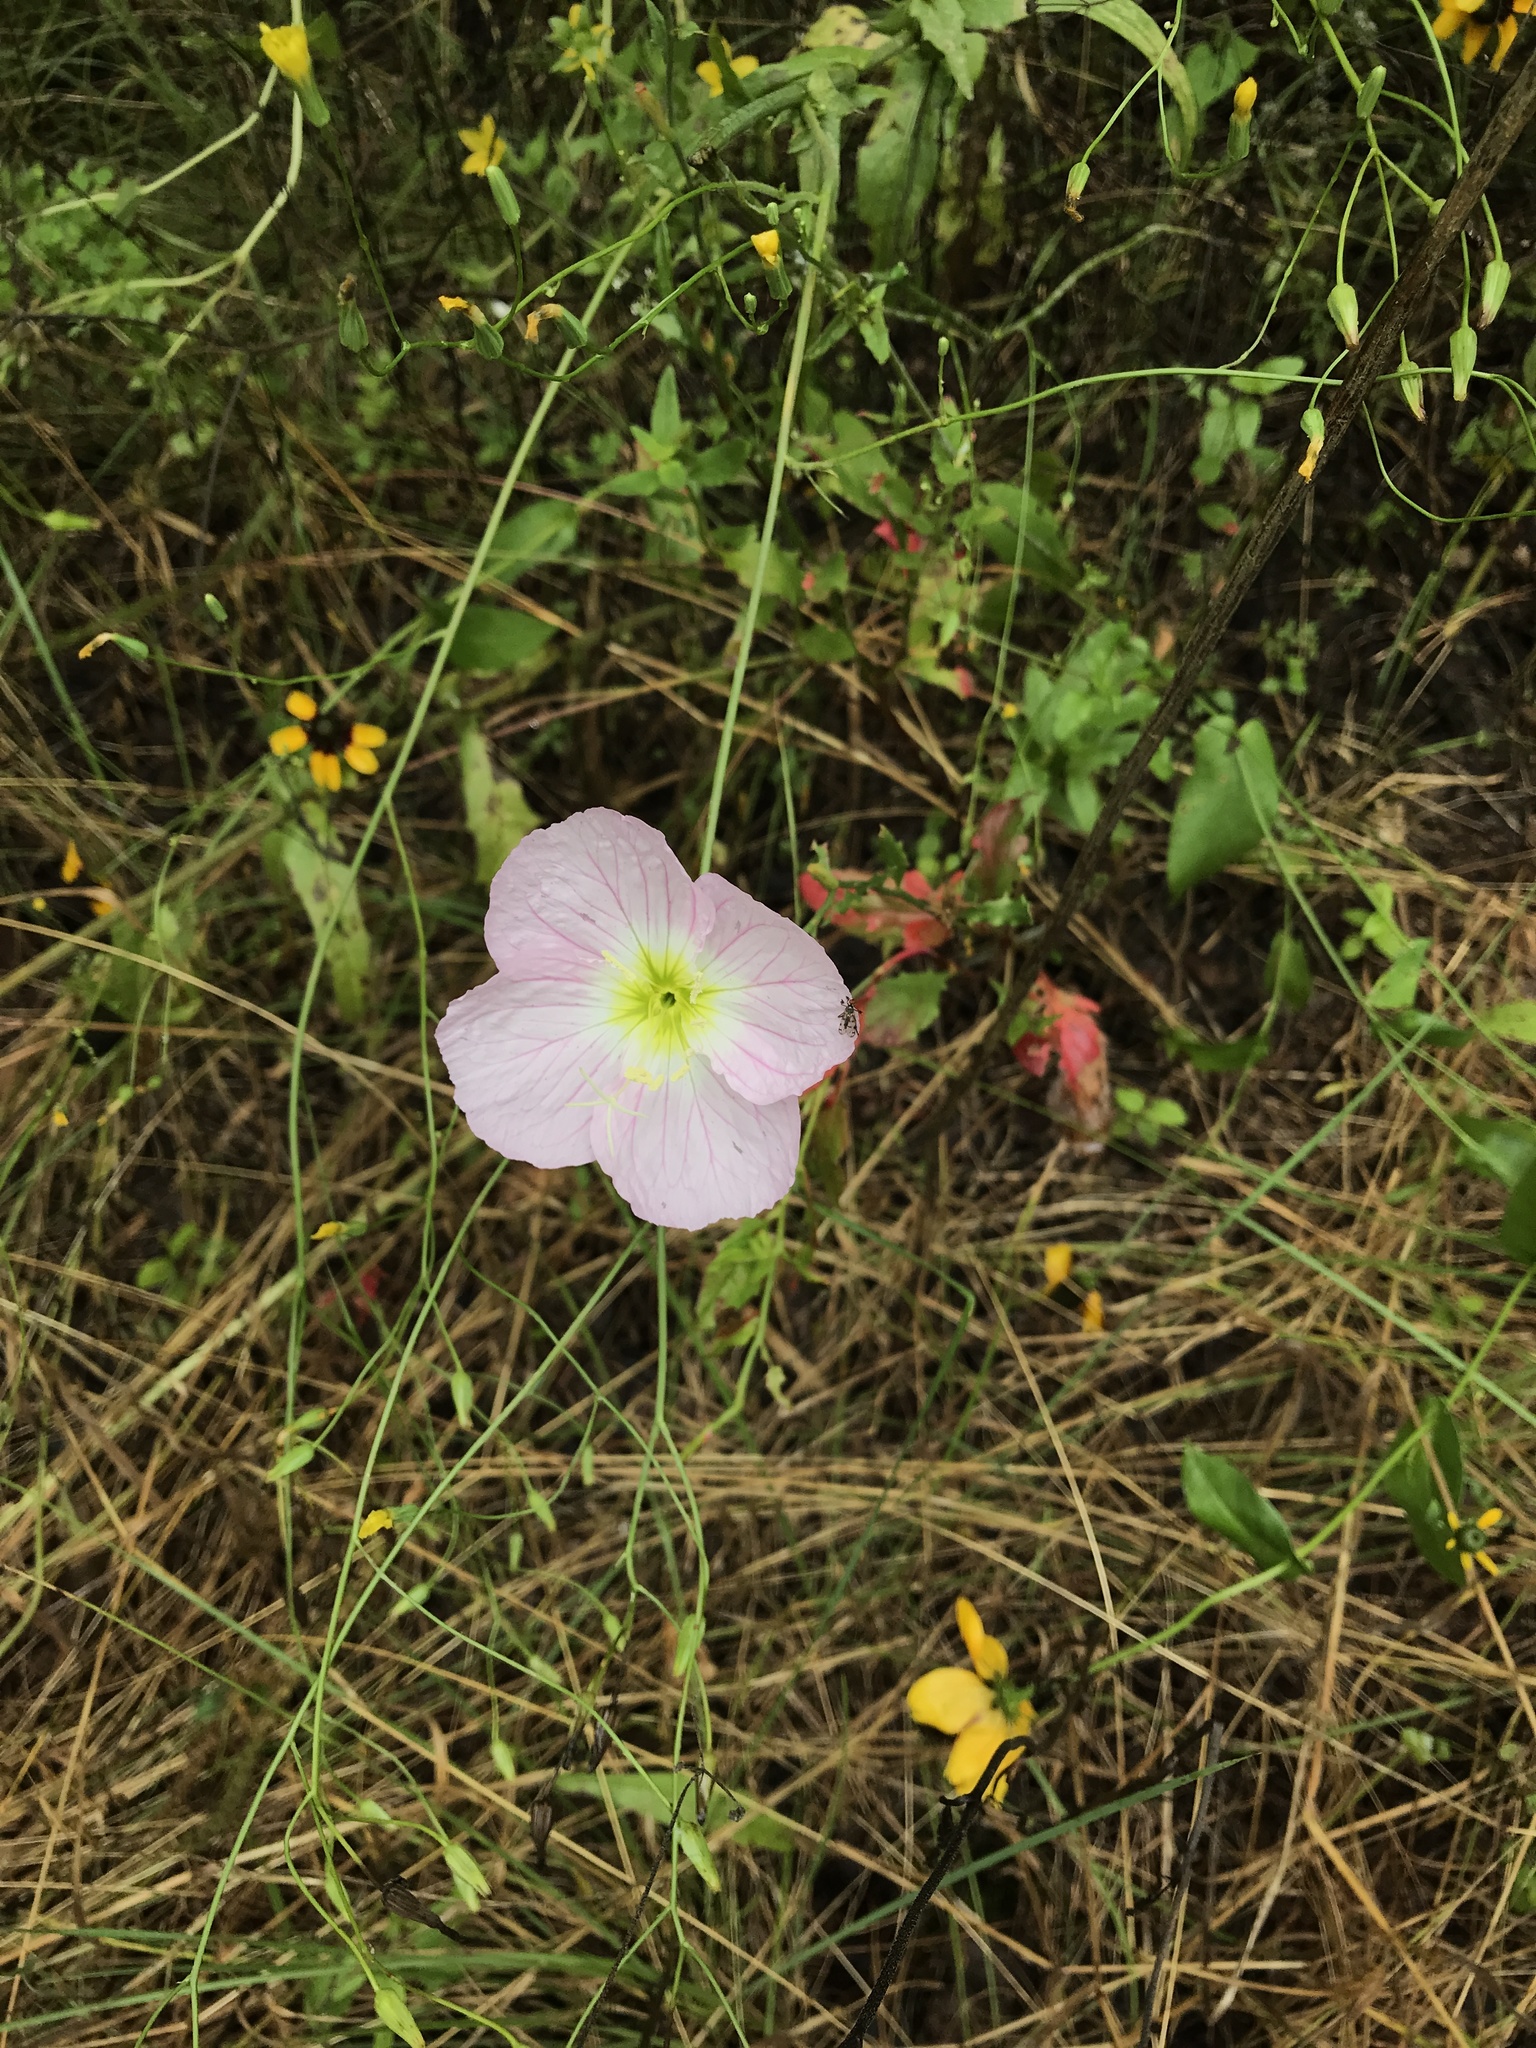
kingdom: Plantae
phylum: Tracheophyta
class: Magnoliopsida
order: Myrtales
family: Onagraceae
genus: Oenothera
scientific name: Oenothera speciosa
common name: White evening-primrose
